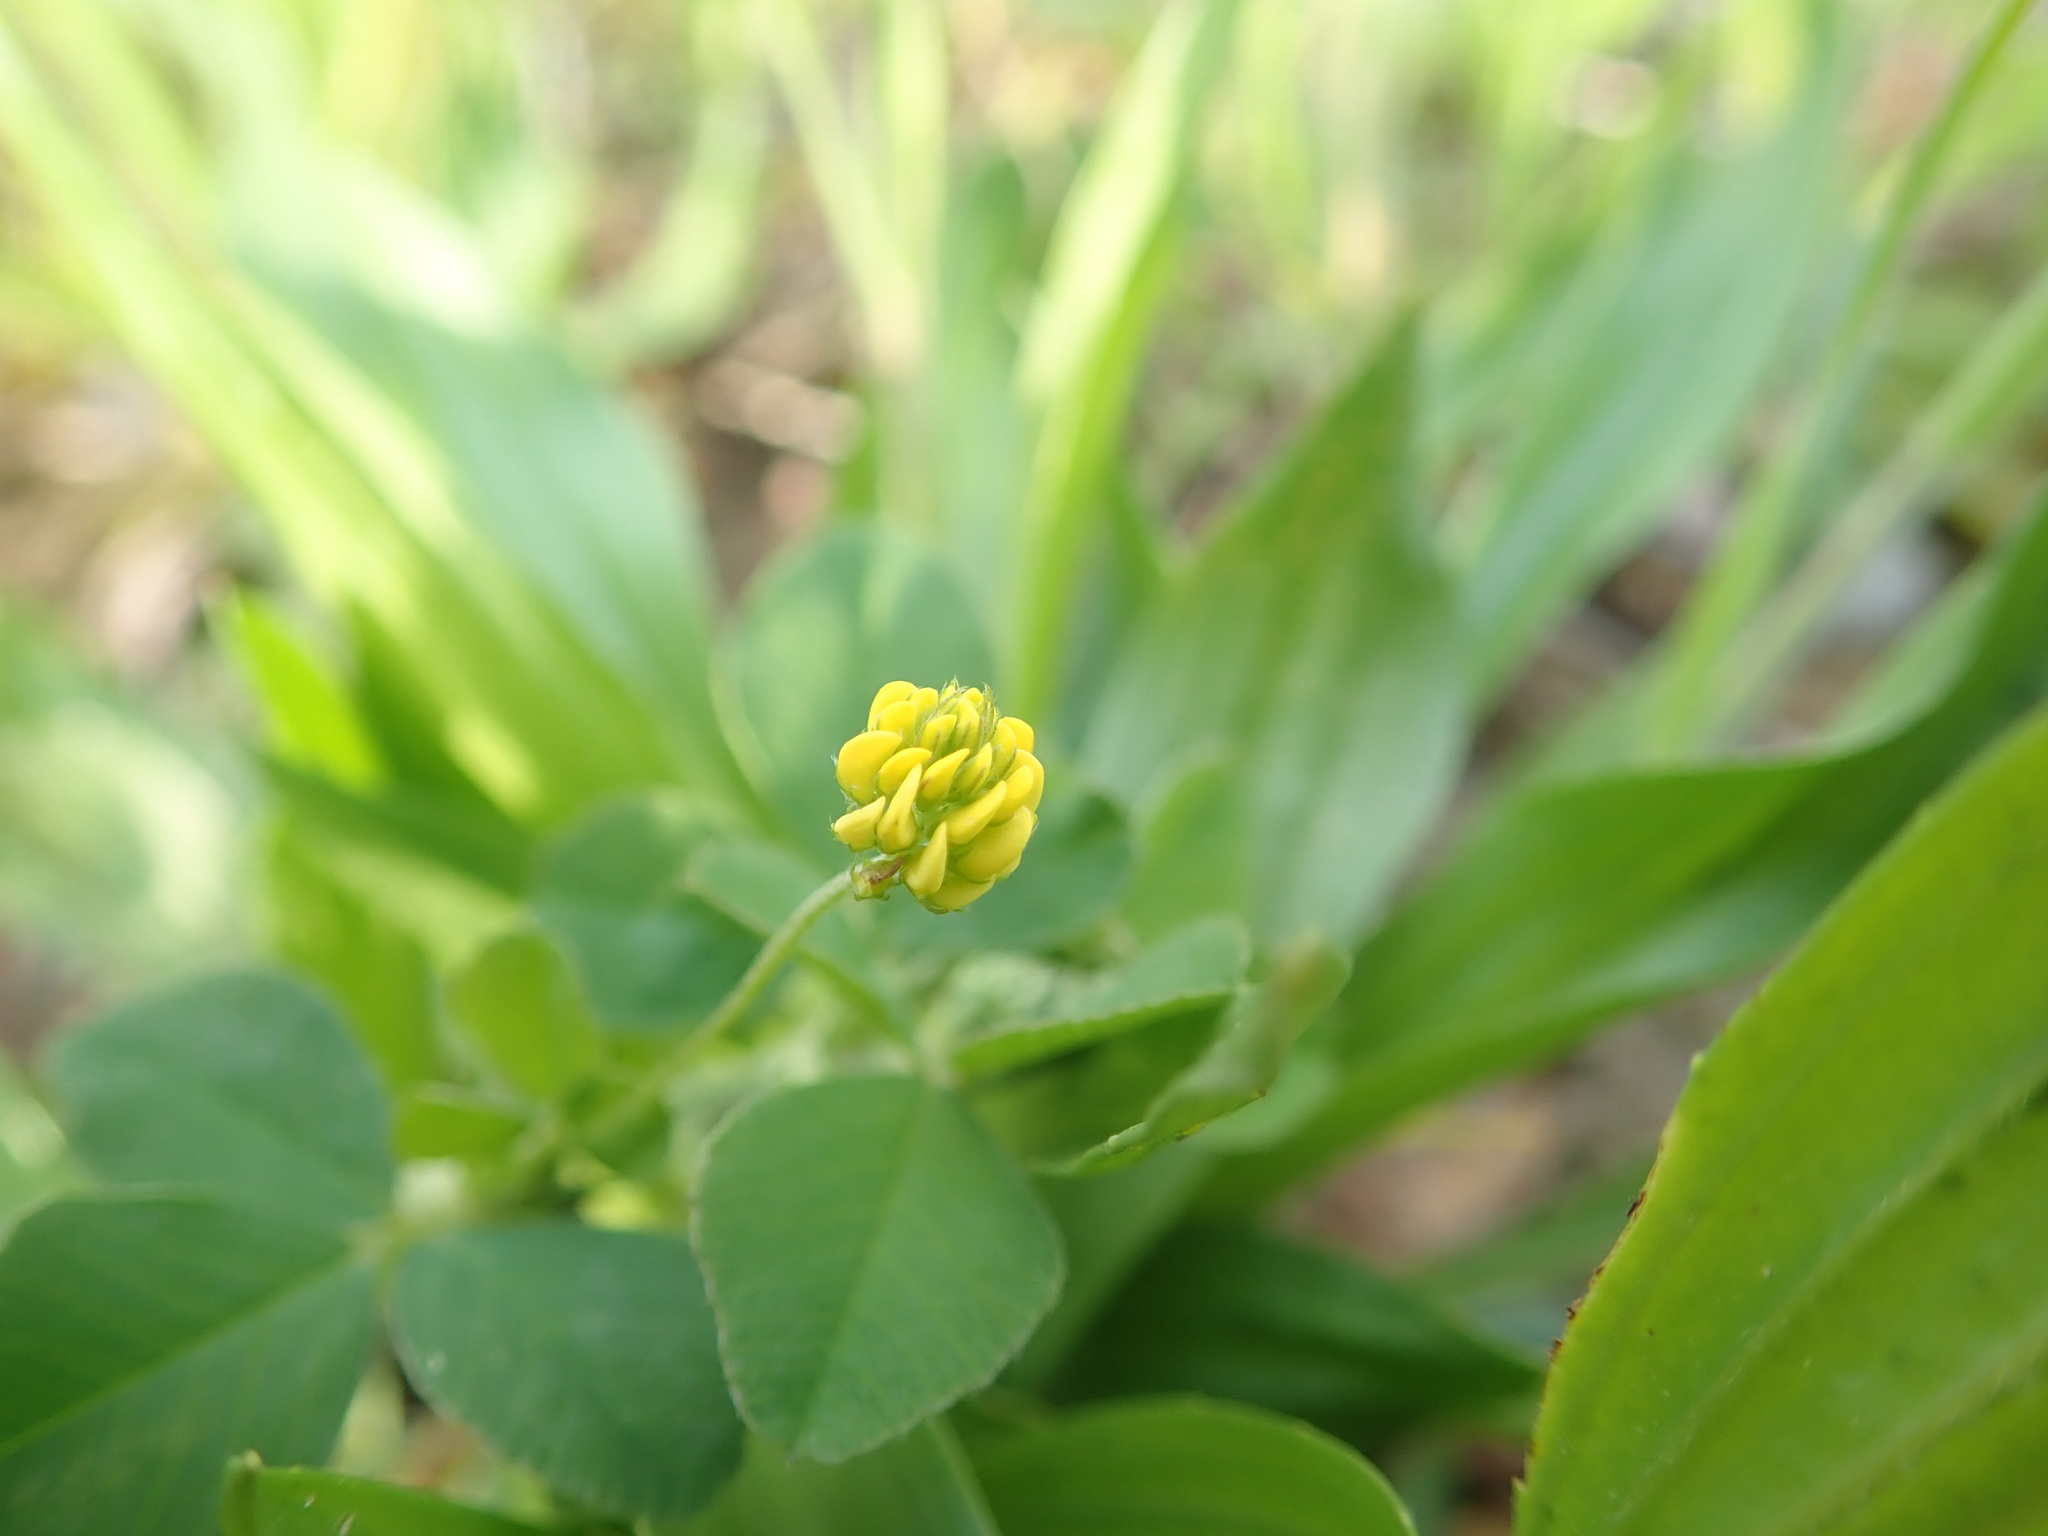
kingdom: Plantae
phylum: Tracheophyta
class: Magnoliopsida
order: Fabales
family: Fabaceae
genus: Medicago
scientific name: Medicago lupulina
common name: Black medick
